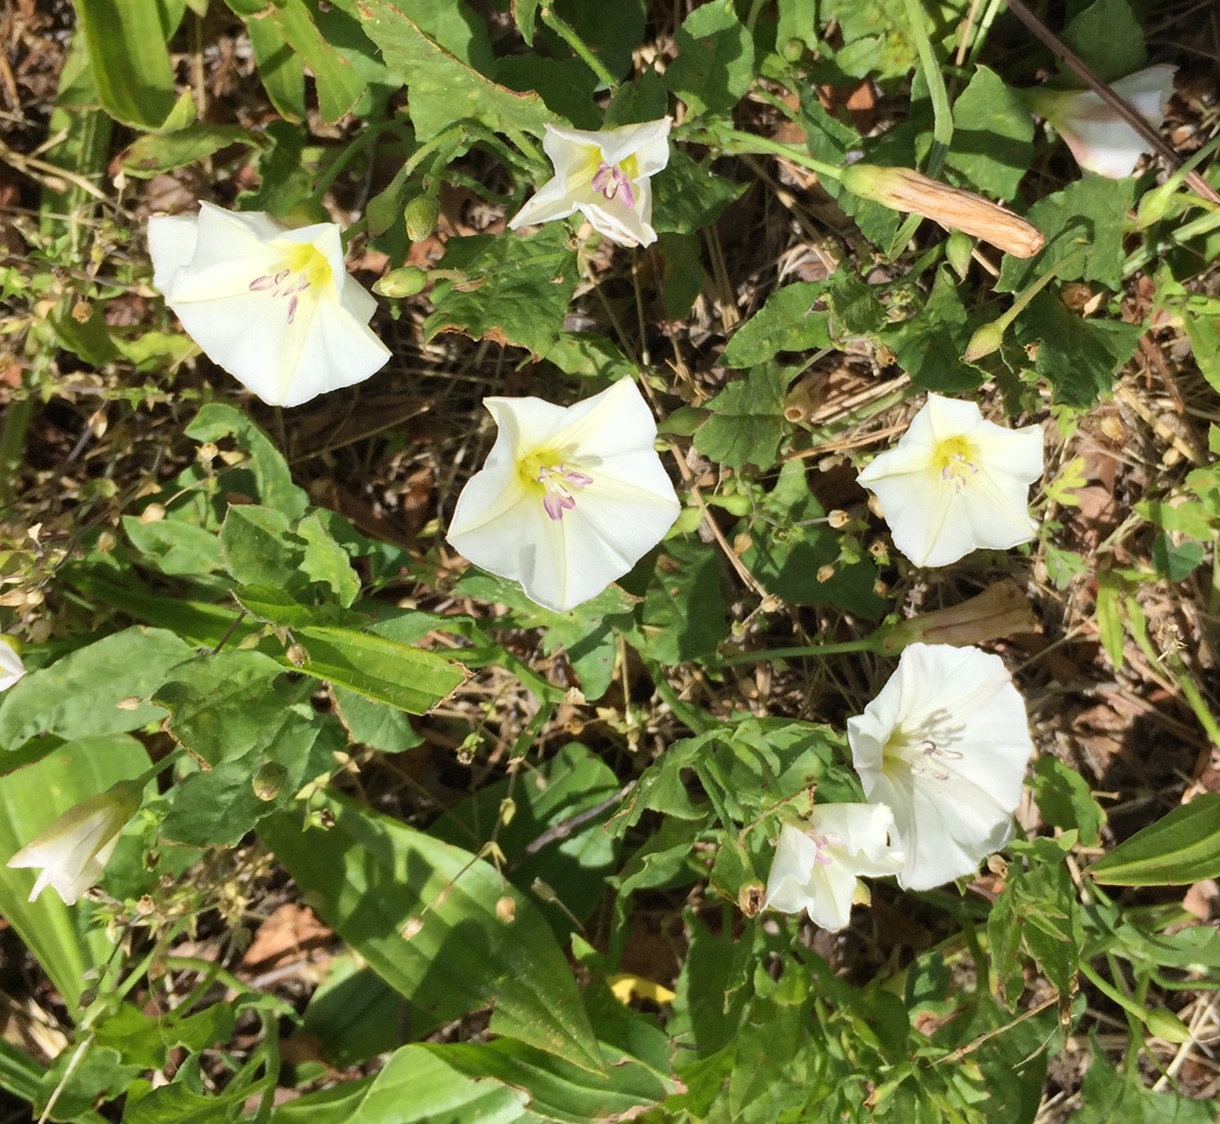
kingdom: Plantae
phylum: Tracheophyta
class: Magnoliopsida
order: Solanales
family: Convolvulaceae
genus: Convolvulus
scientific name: Convolvulus arvensis
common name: Field bindweed
